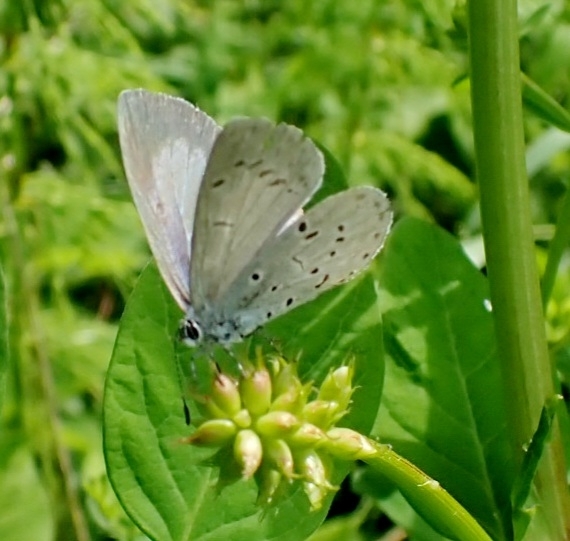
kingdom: Animalia
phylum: Arthropoda
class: Insecta
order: Lepidoptera
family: Lycaenidae
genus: Celastrina
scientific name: Celastrina argiolus
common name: Holly blue
